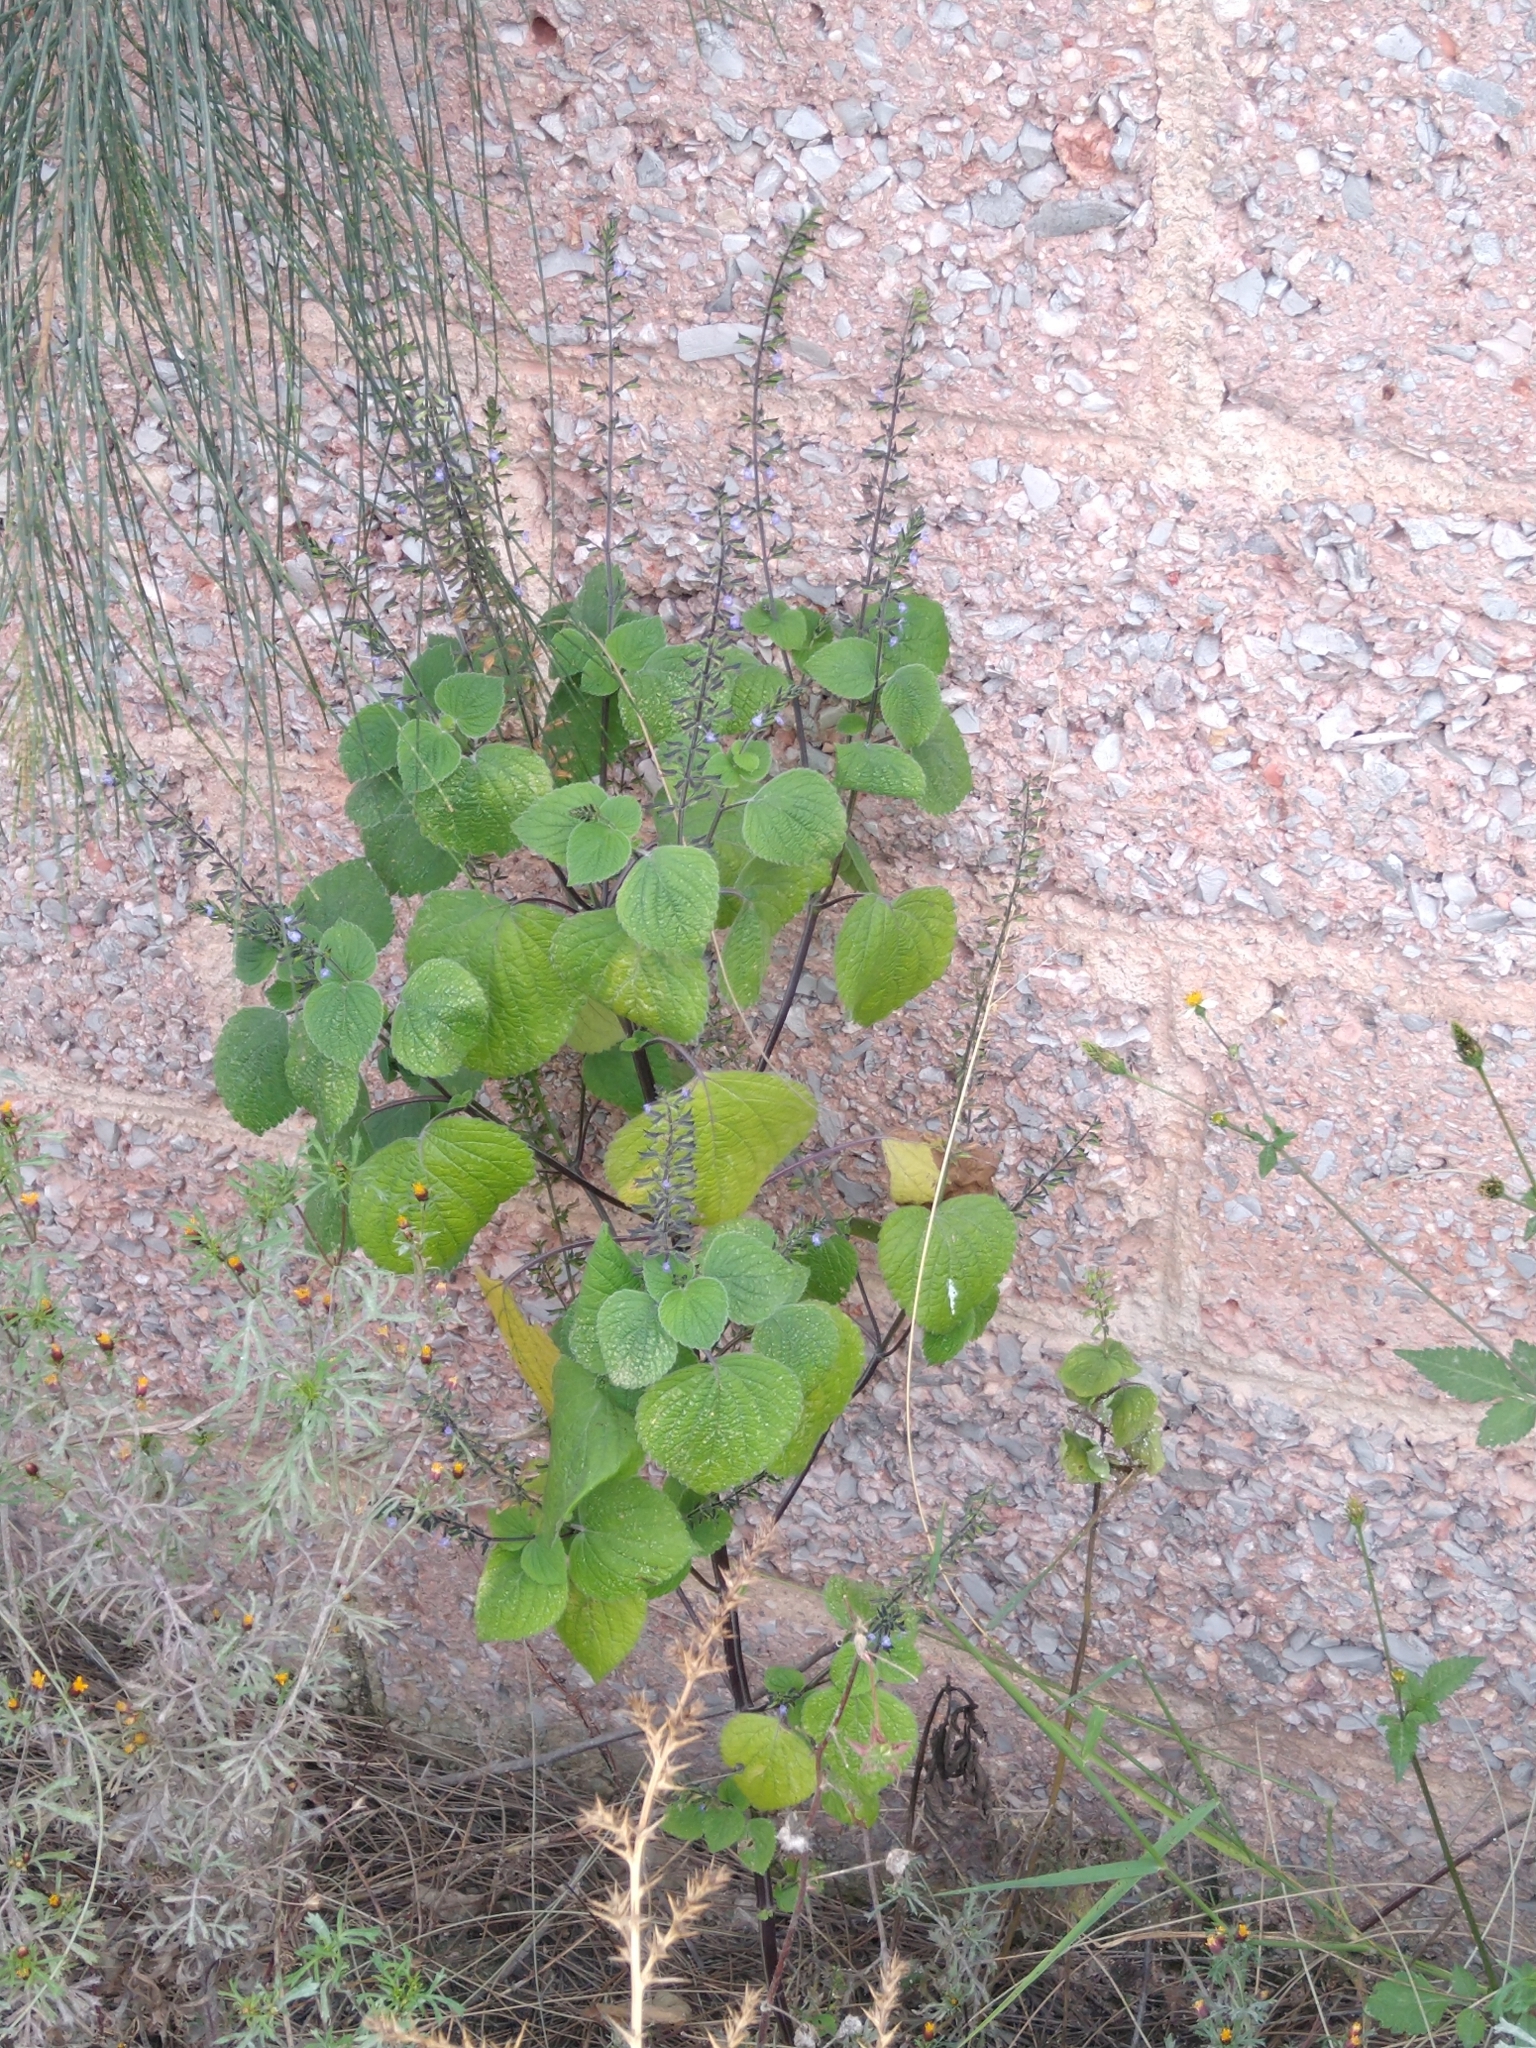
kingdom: Plantae
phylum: Tracheophyta
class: Magnoliopsida
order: Lamiales
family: Lamiaceae
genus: Salvia
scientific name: Salvia tiliifolia
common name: Lindenleaf sage
